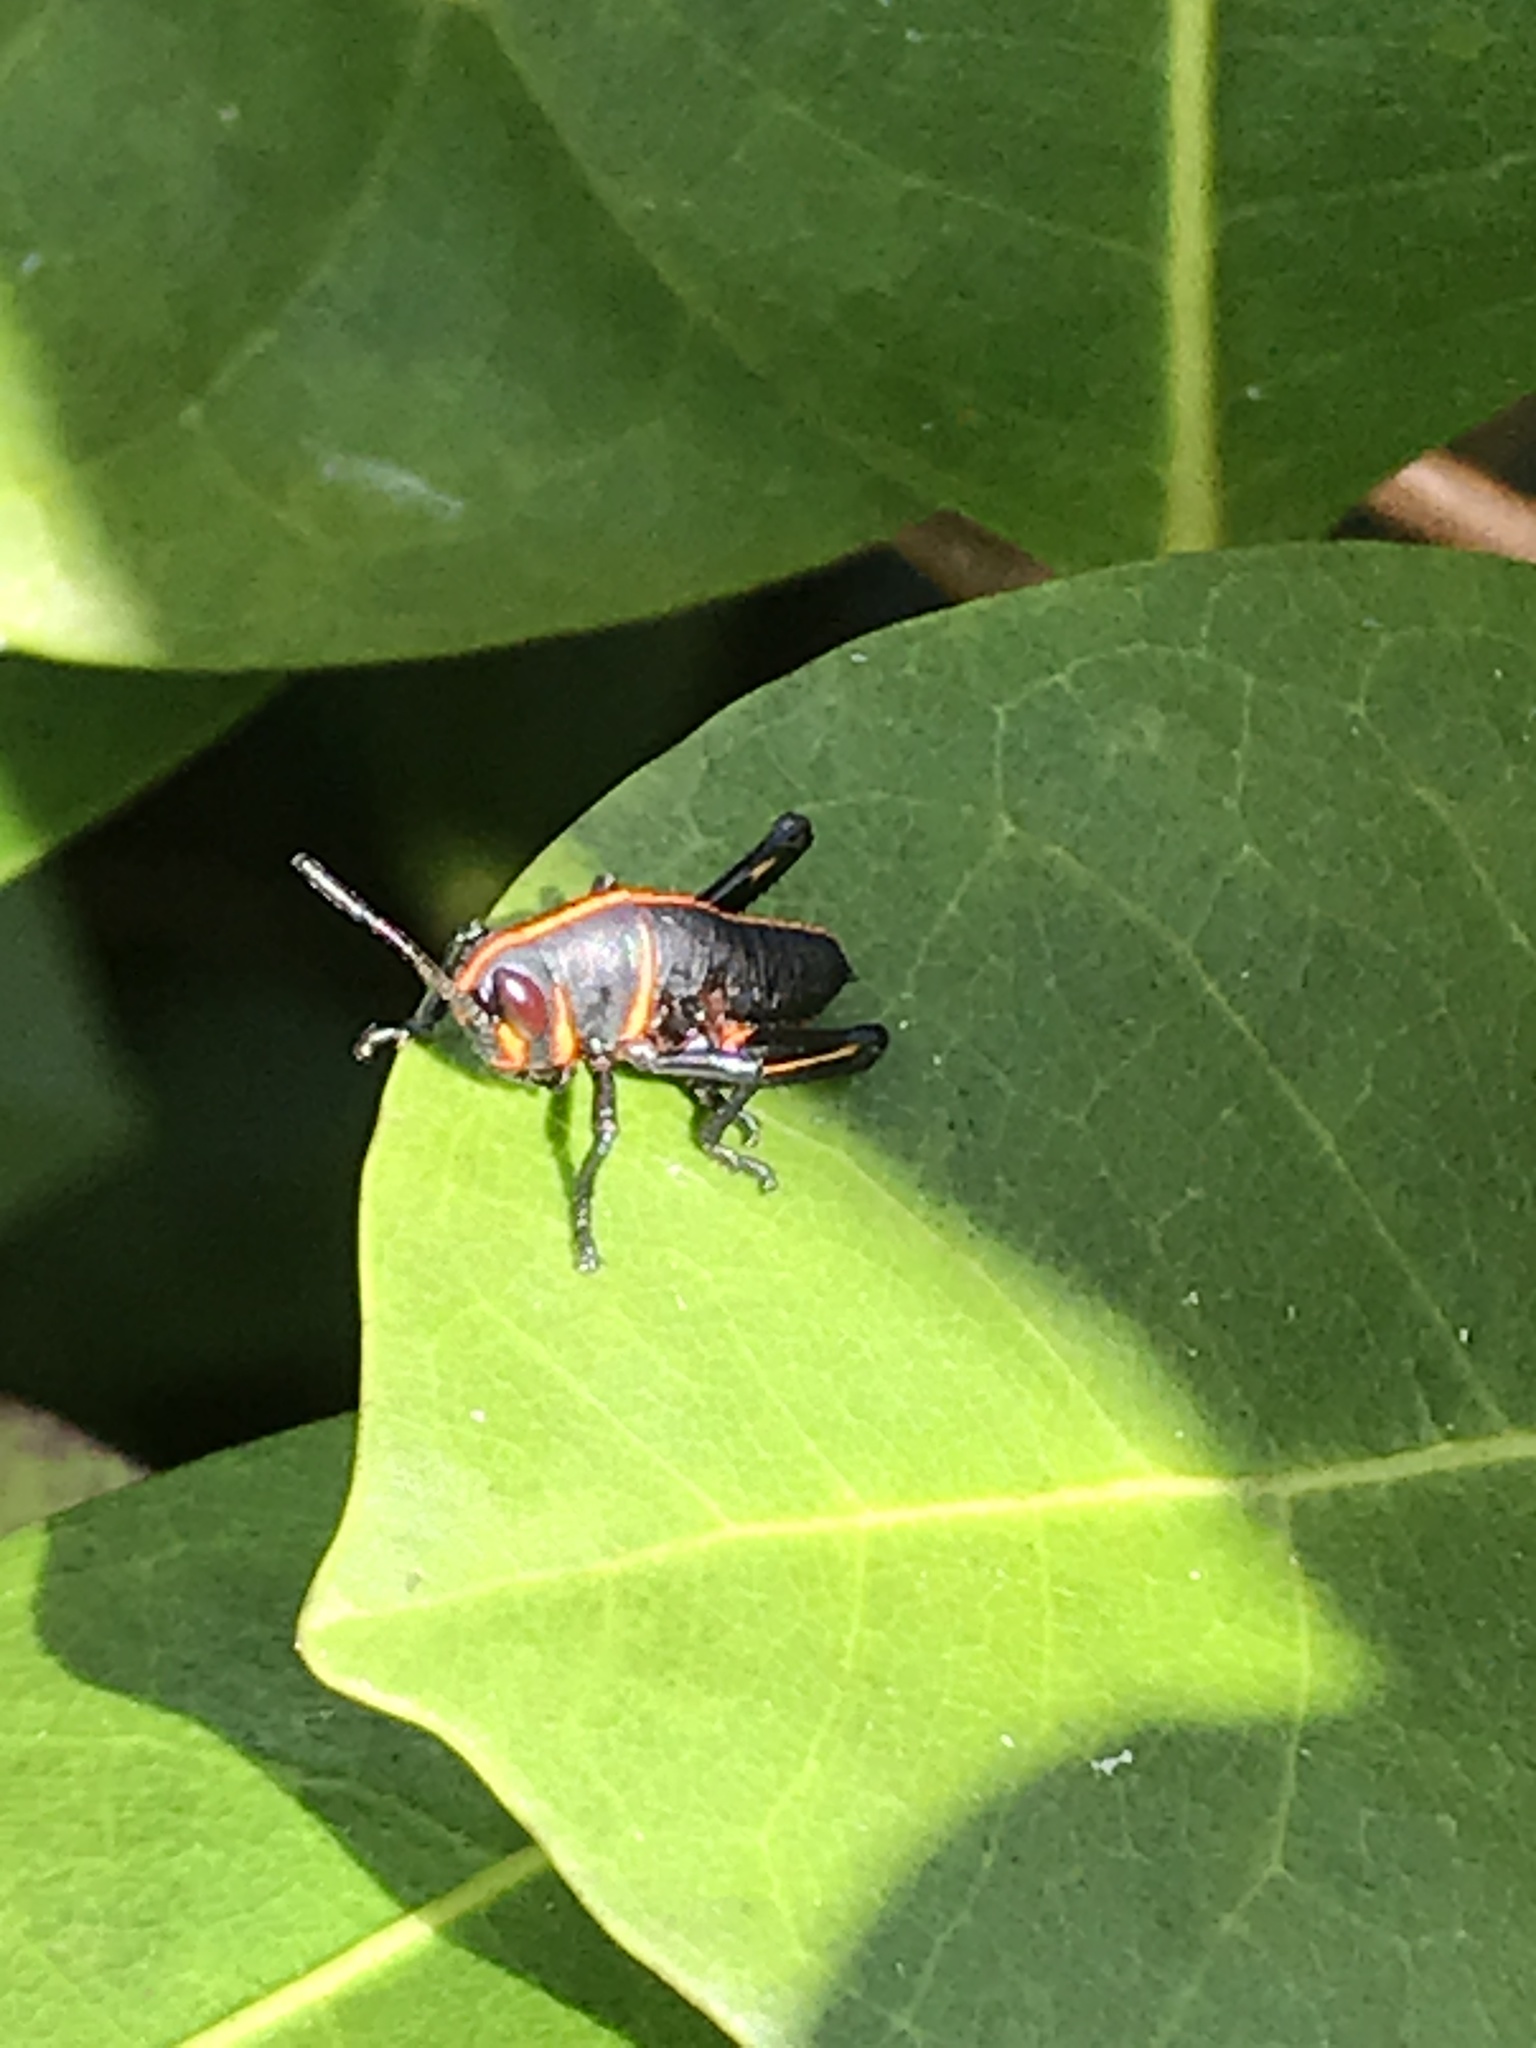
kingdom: Animalia
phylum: Arthropoda
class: Insecta
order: Orthoptera
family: Romaleidae
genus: Romalea
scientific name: Romalea microptera
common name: Eastern lubber grasshopper
